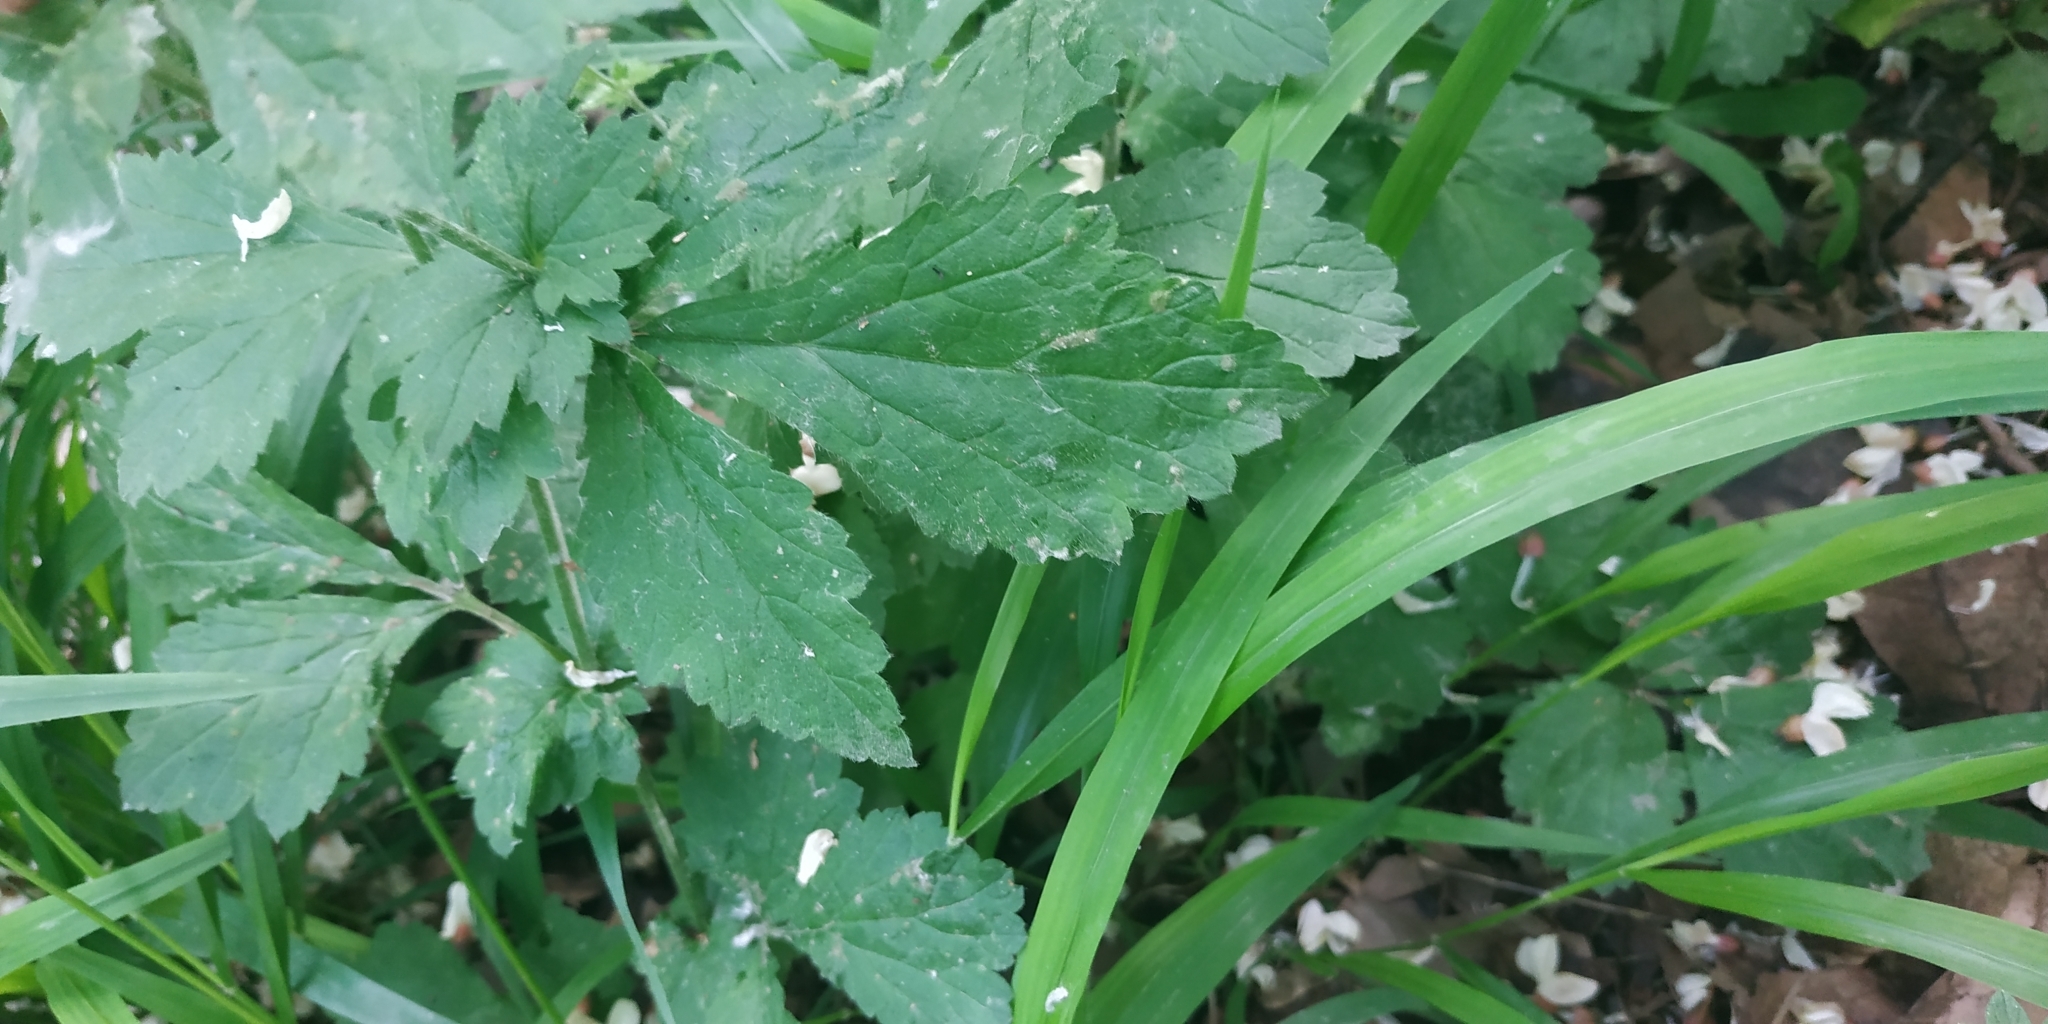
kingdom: Plantae
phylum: Tracheophyta
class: Magnoliopsida
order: Rosales
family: Rosaceae
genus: Geum
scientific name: Geum urbanum
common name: Wood avens
